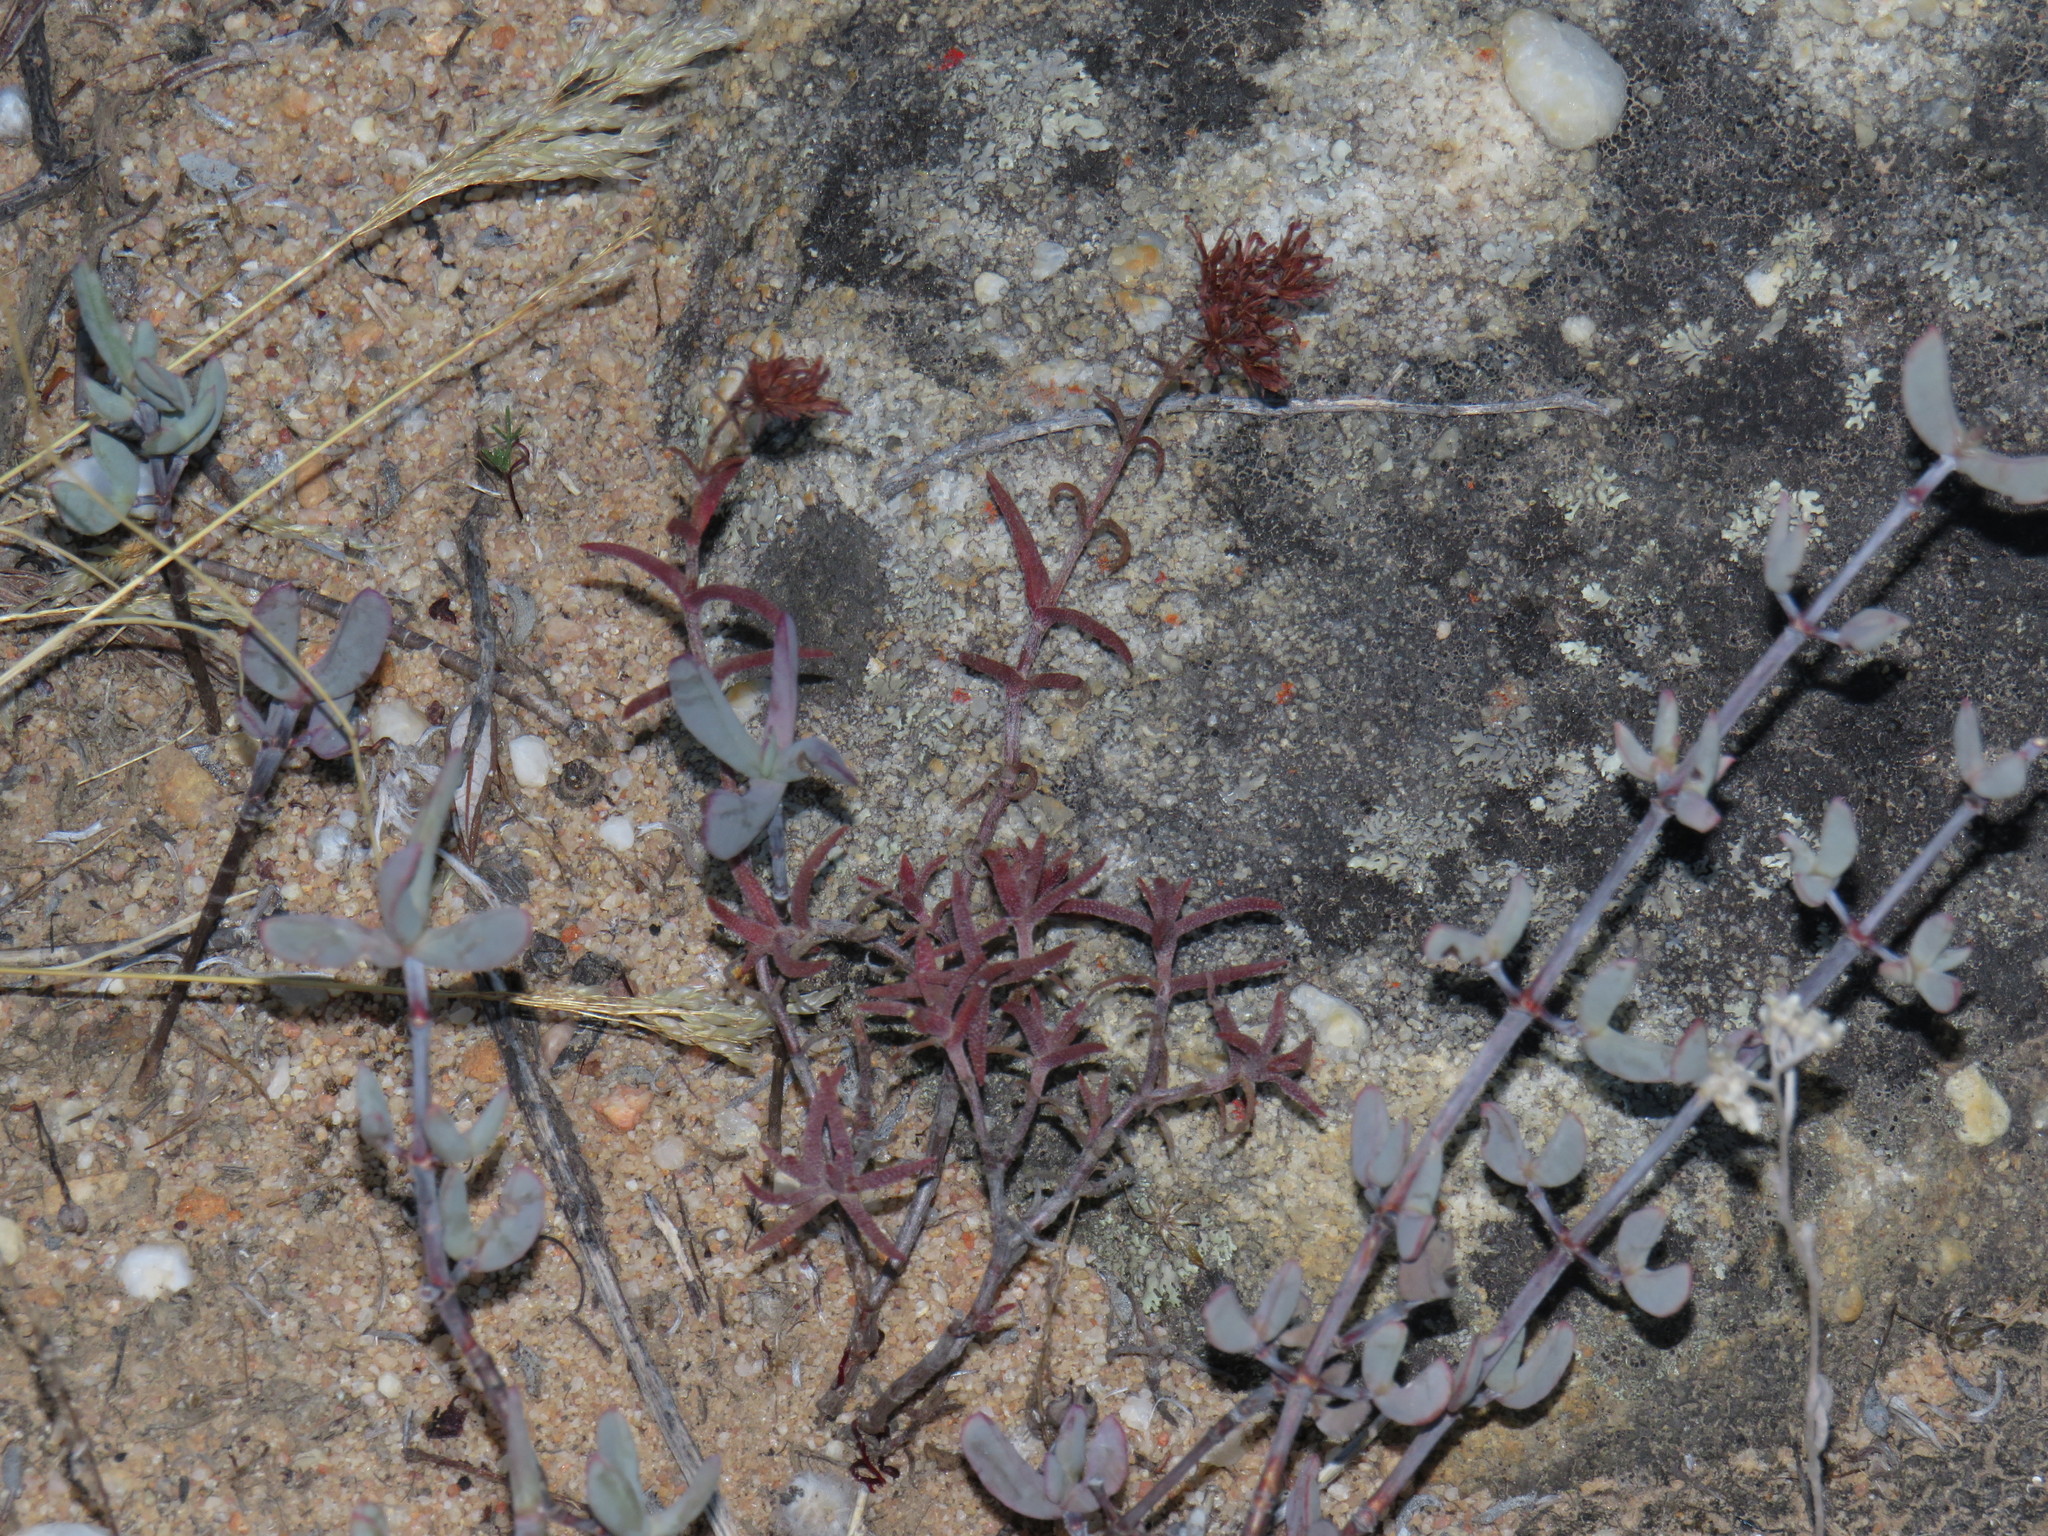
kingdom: Plantae
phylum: Tracheophyta
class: Magnoliopsida
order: Saxifragales
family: Crassulaceae
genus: Crassula
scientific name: Crassula pruinosa
